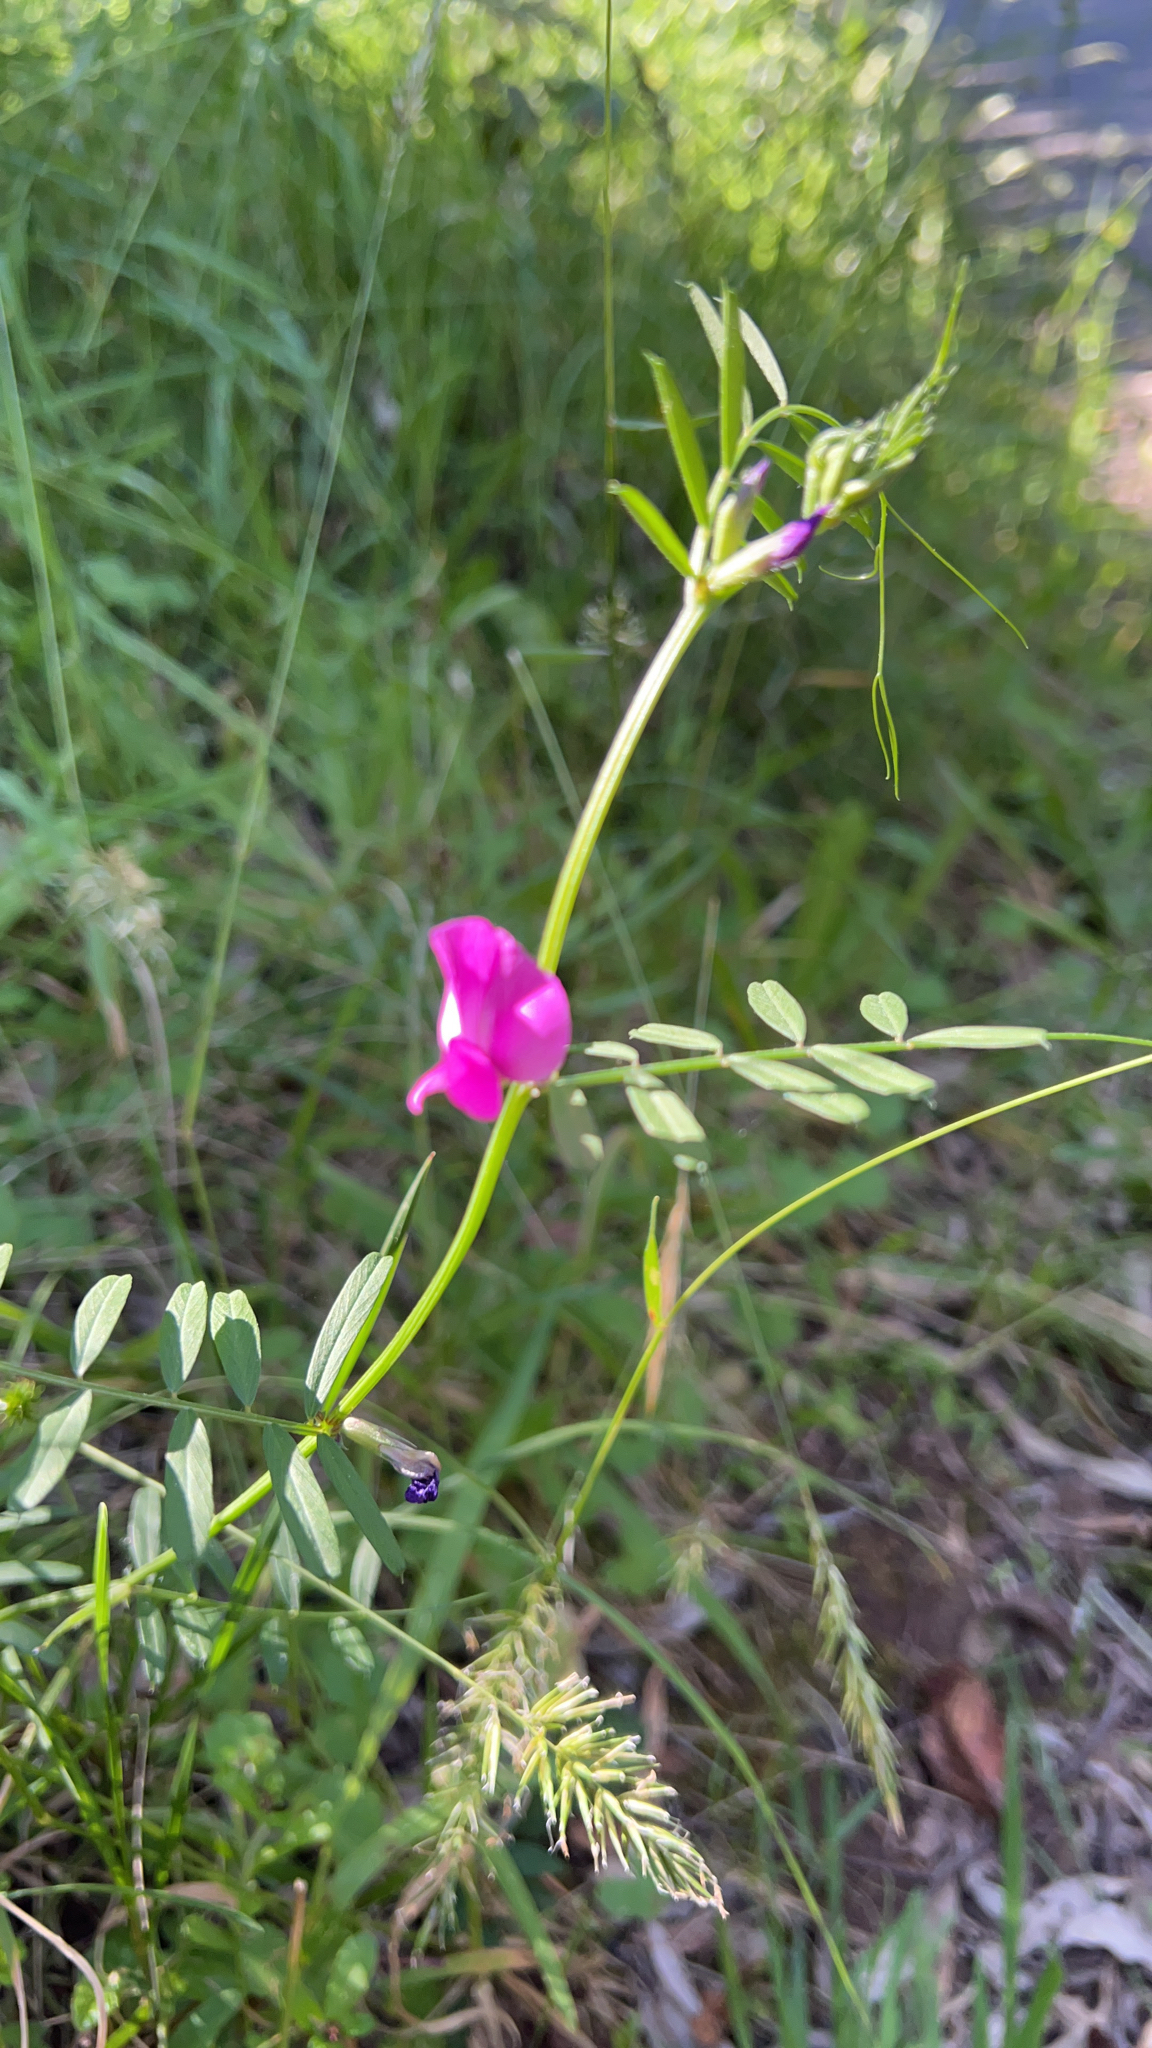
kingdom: Plantae
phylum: Tracheophyta
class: Magnoliopsida
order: Fabales
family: Fabaceae
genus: Vicia
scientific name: Vicia sativa
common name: Garden vetch
